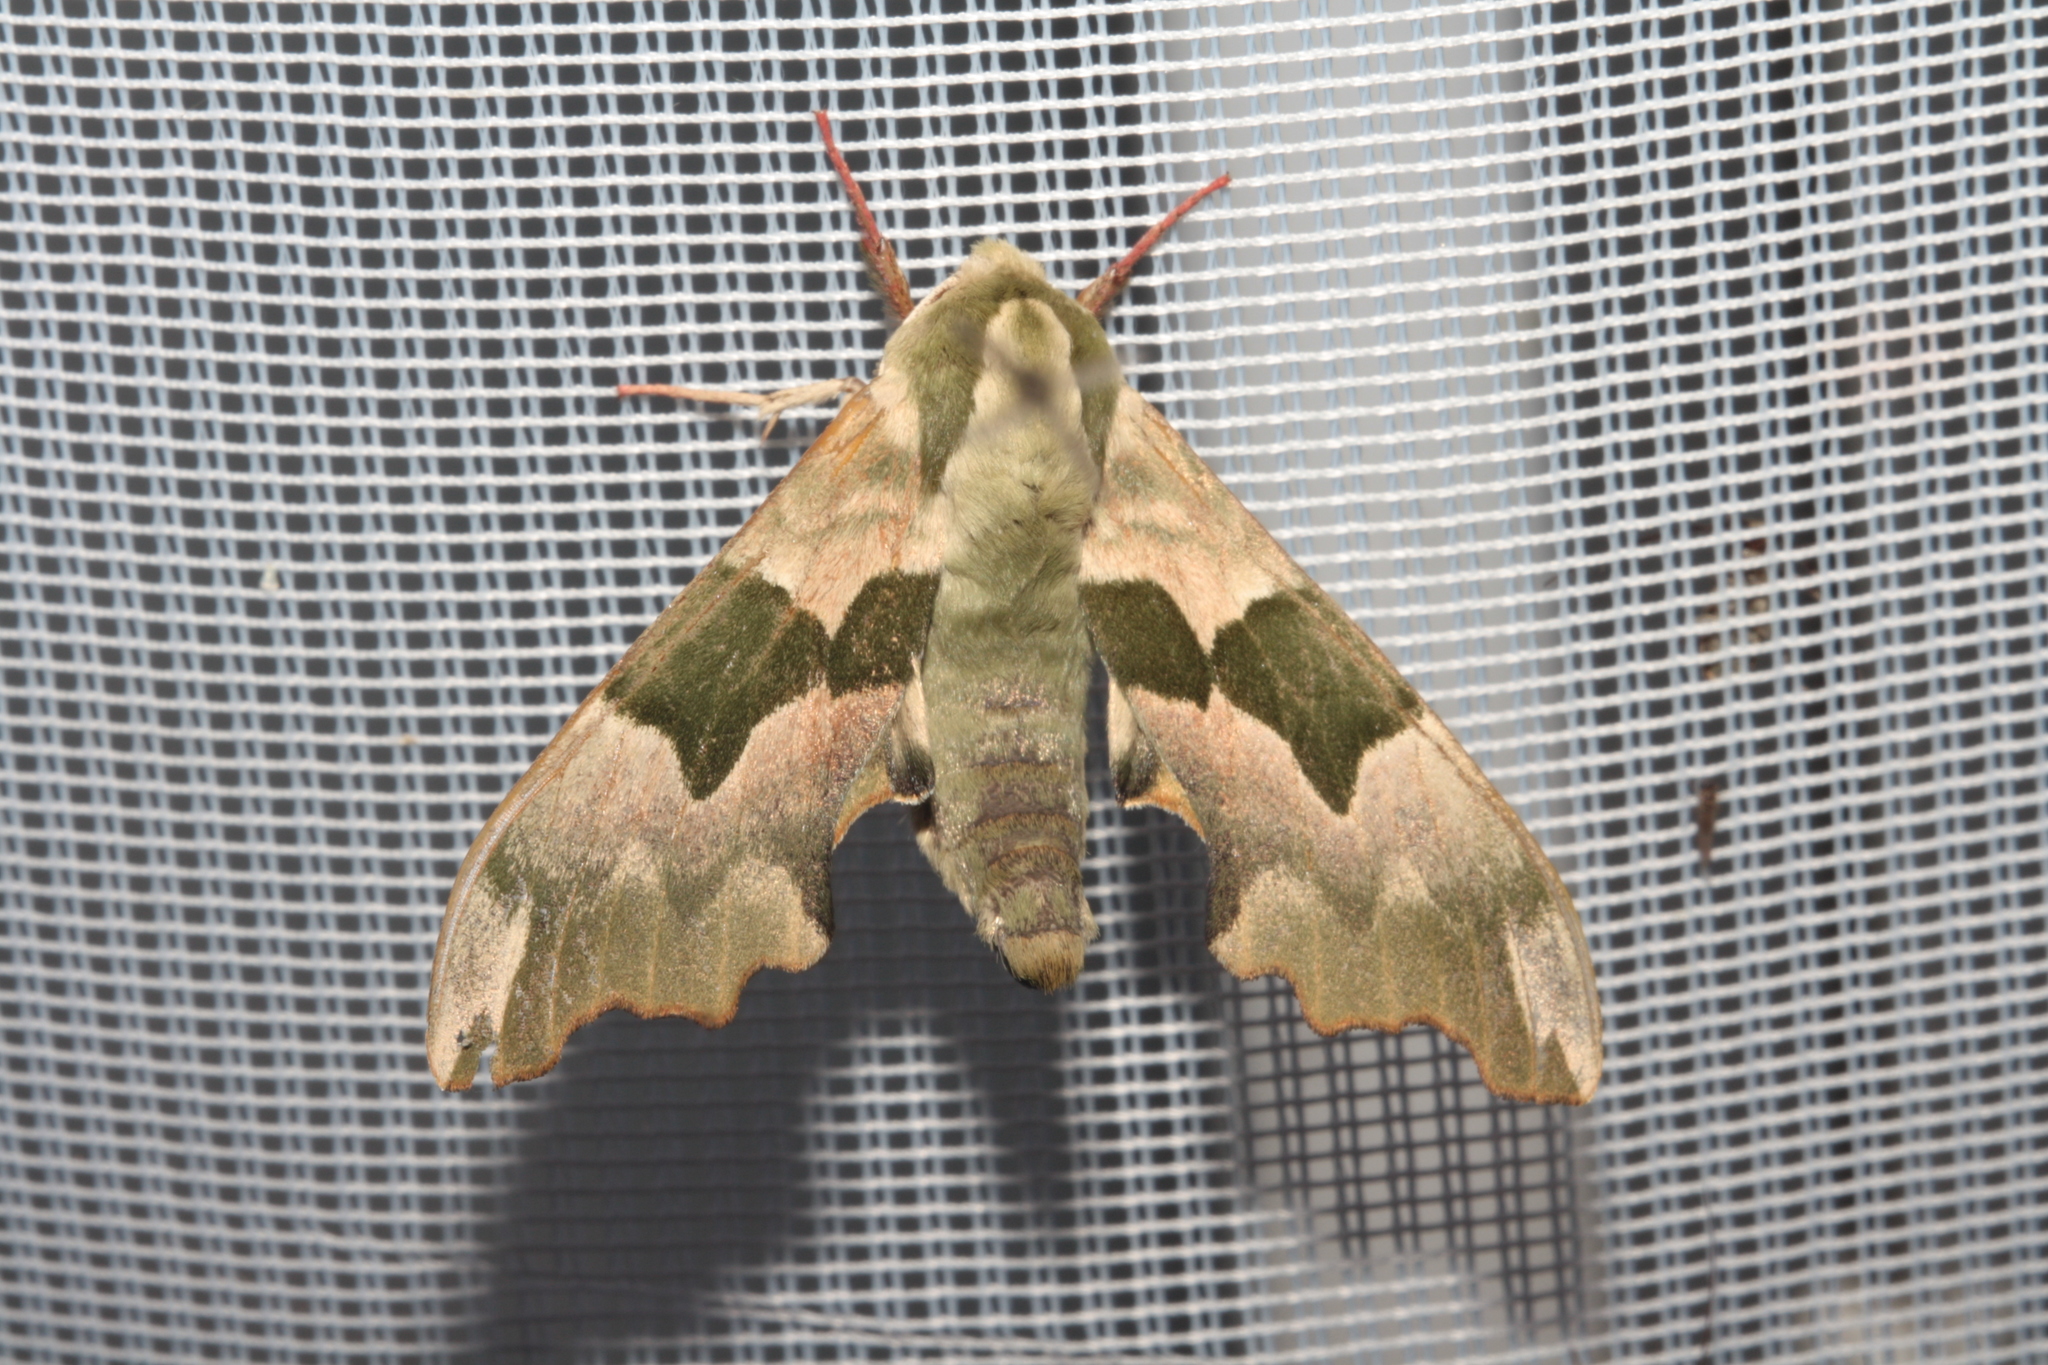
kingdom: Animalia
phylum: Arthropoda
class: Insecta
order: Lepidoptera
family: Sphingidae
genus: Mimas
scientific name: Mimas tiliae
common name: Lime hawk-moth
